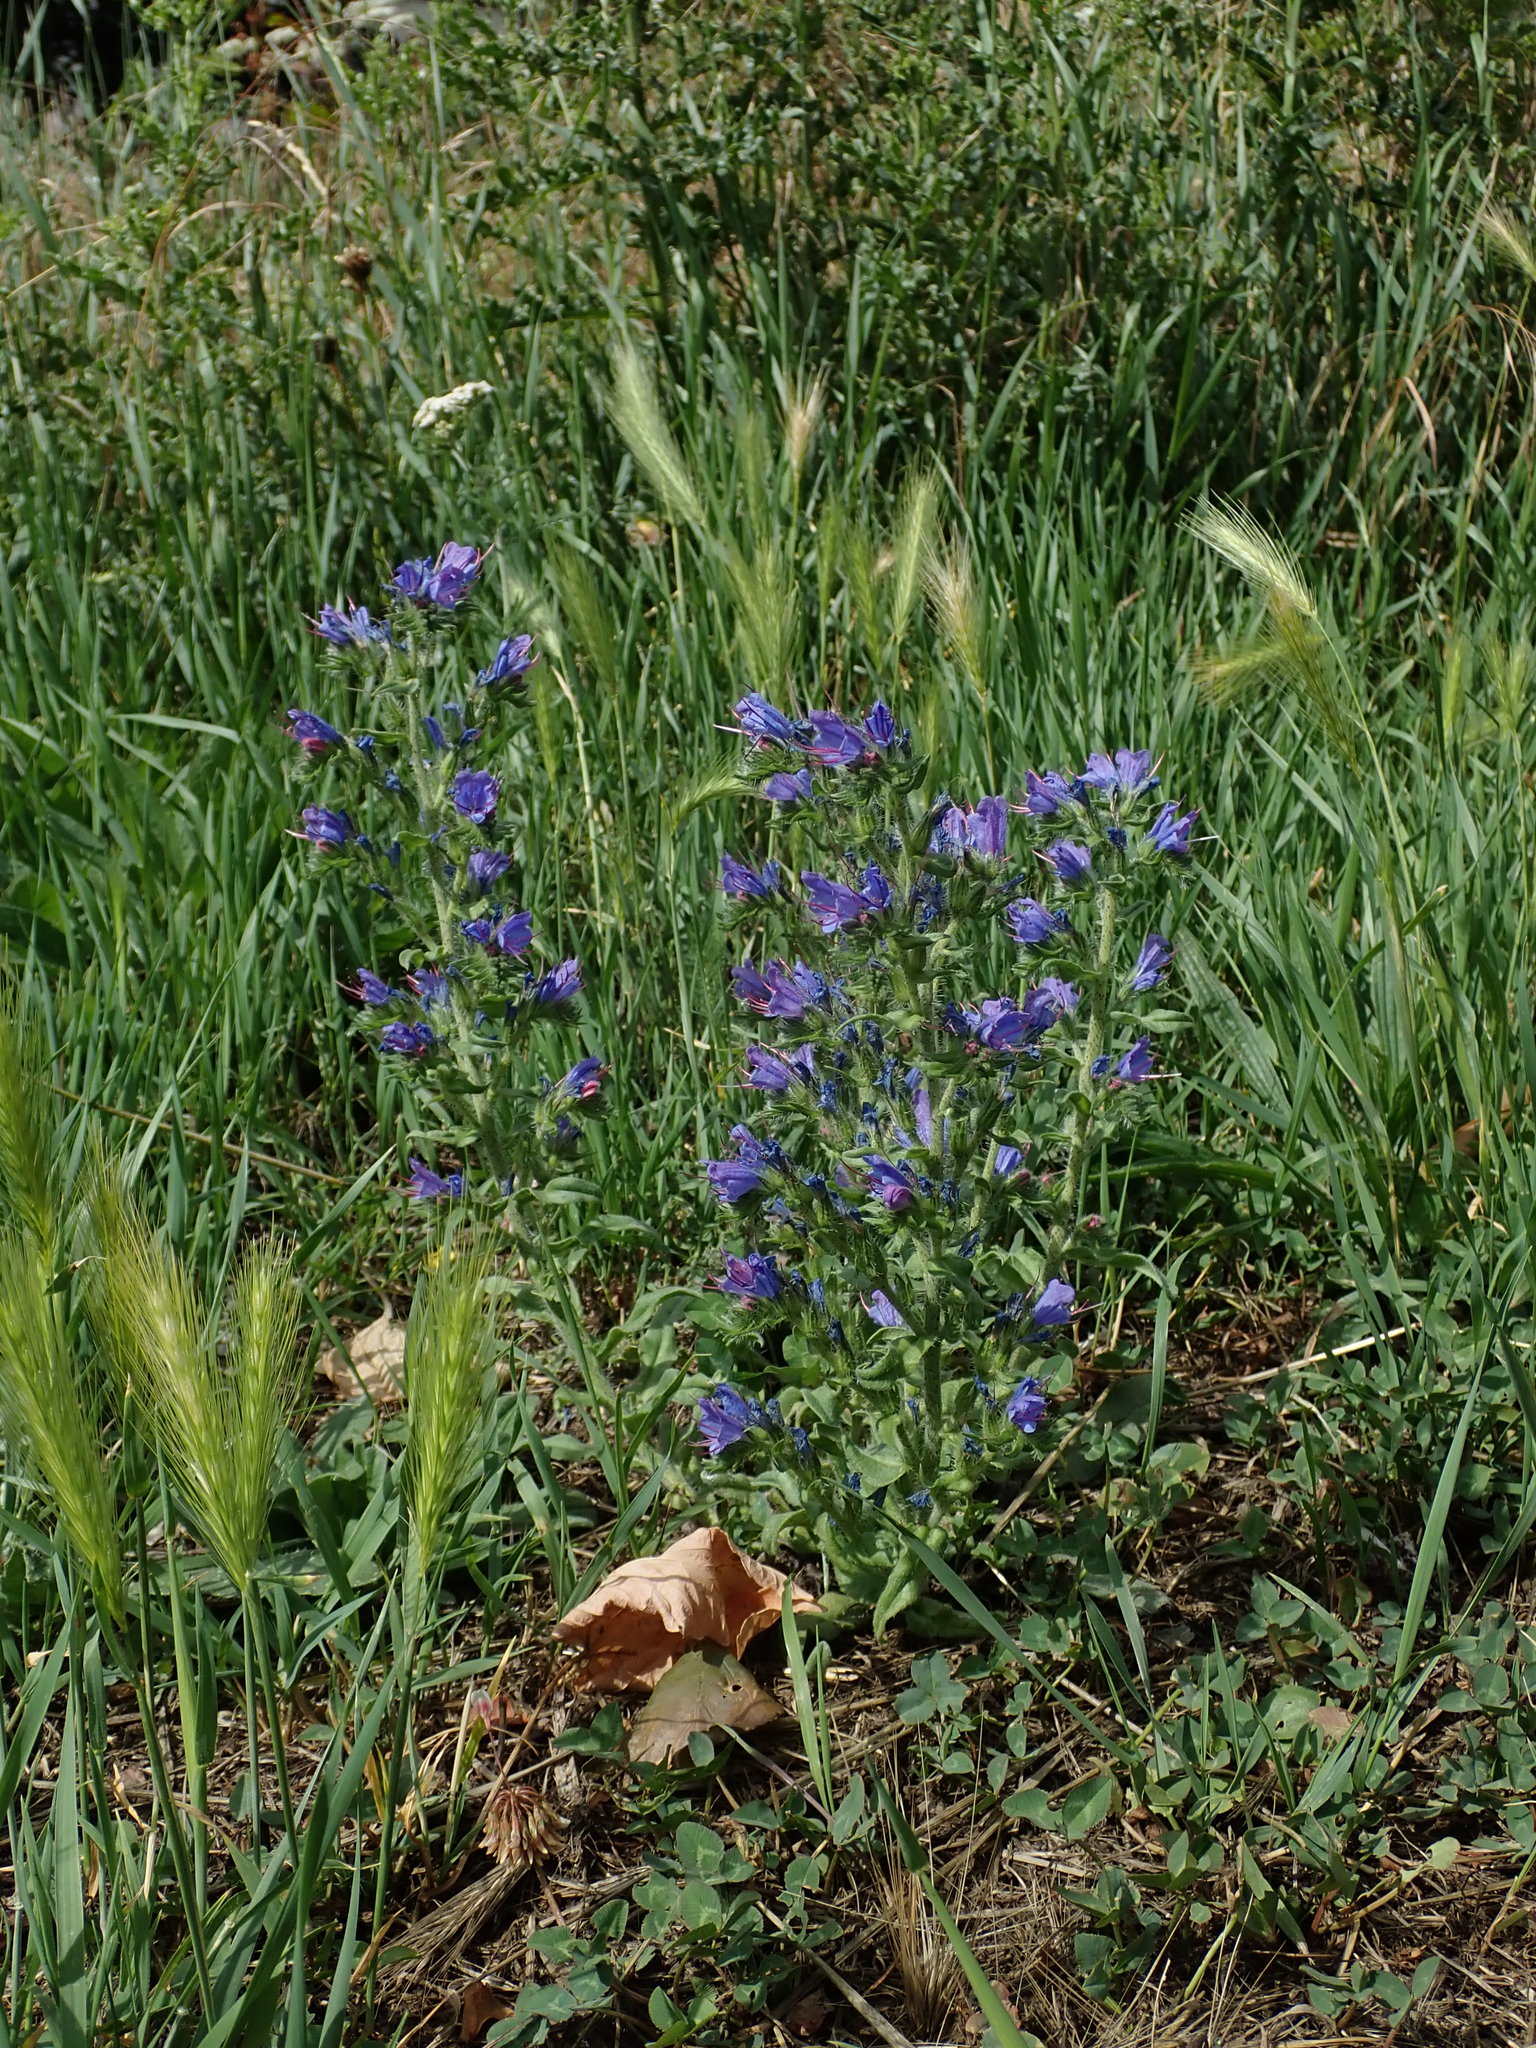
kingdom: Plantae
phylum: Tracheophyta
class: Magnoliopsida
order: Boraginales
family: Boraginaceae
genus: Echium
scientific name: Echium vulgare
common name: Common viper's bugloss
